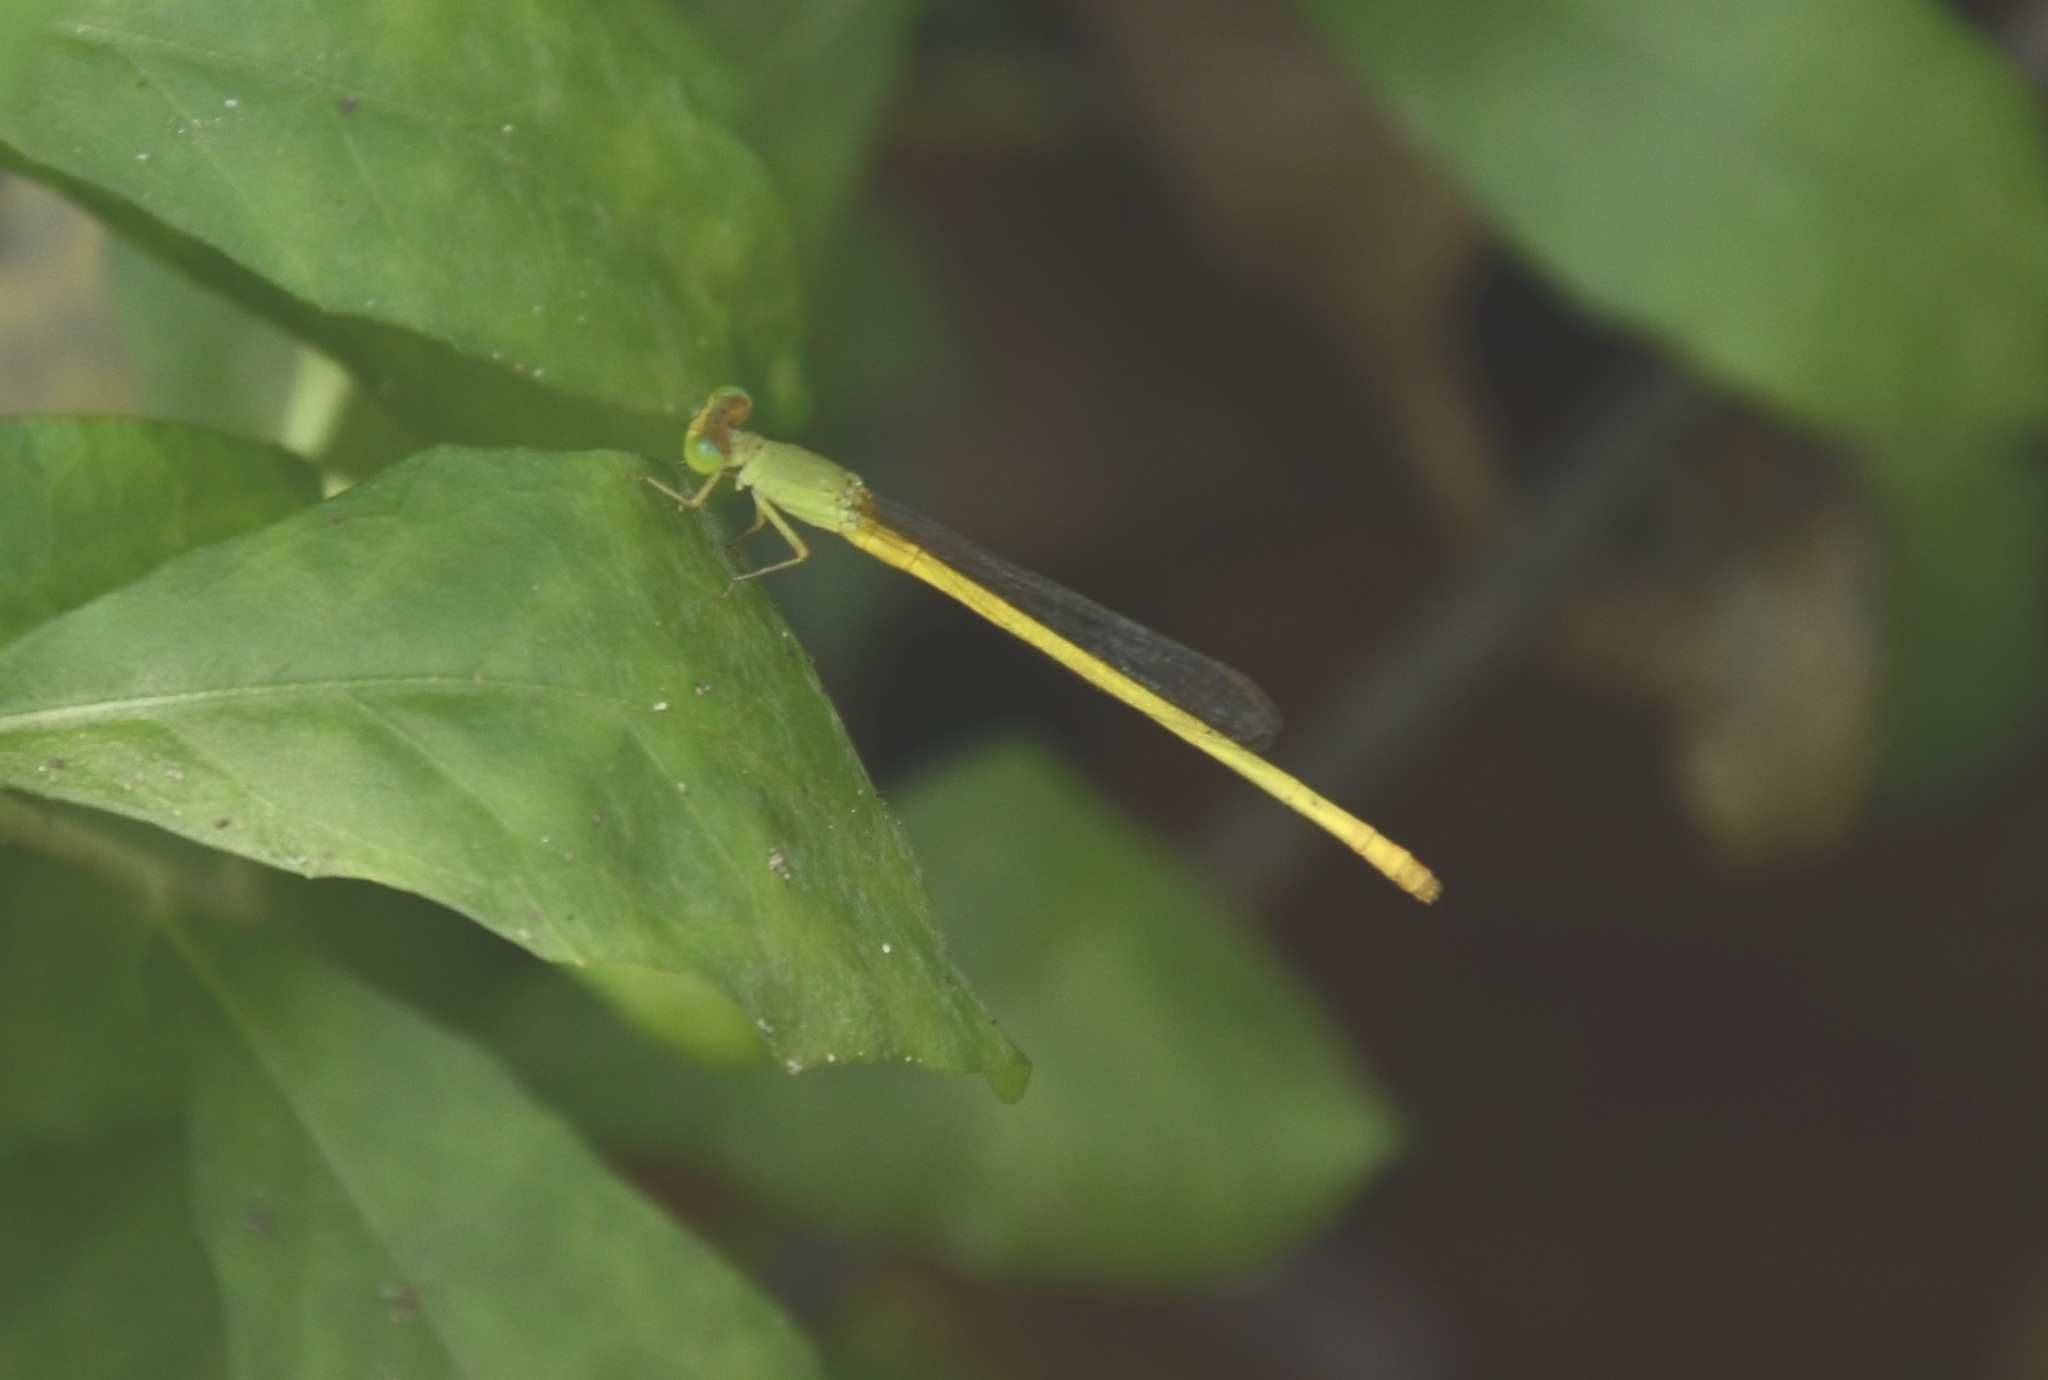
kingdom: Animalia
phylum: Arthropoda
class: Insecta
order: Odonata
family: Coenagrionidae
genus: Ceriagrion
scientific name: Ceriagrion coromandelianum
